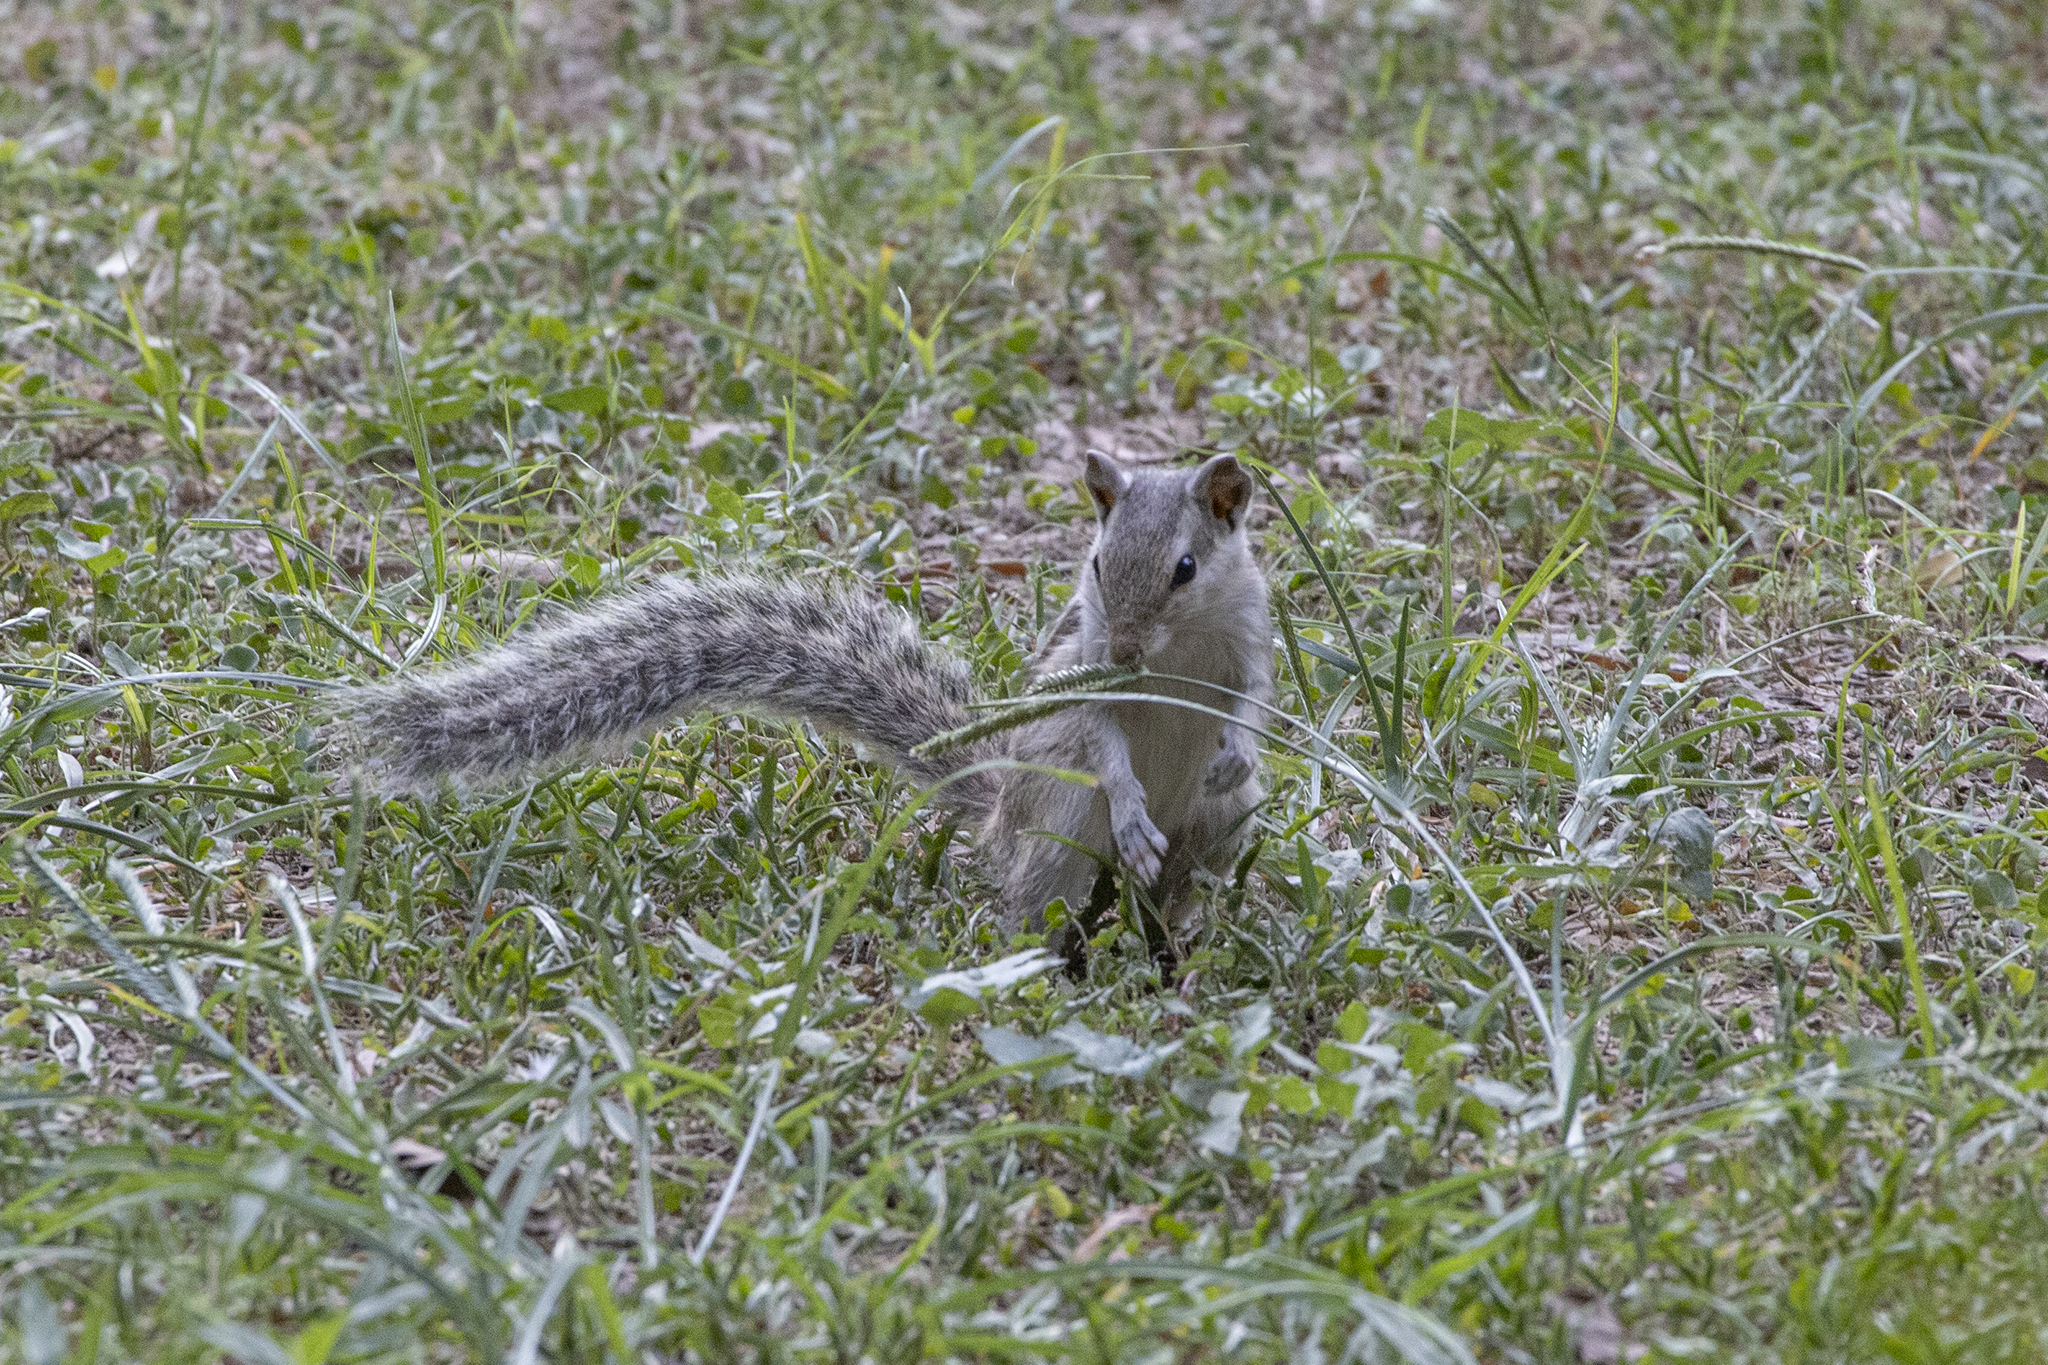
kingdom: Animalia
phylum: Chordata
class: Mammalia
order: Rodentia
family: Sciuridae
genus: Funambulus
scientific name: Funambulus pennantii
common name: Northern palm squirrel
